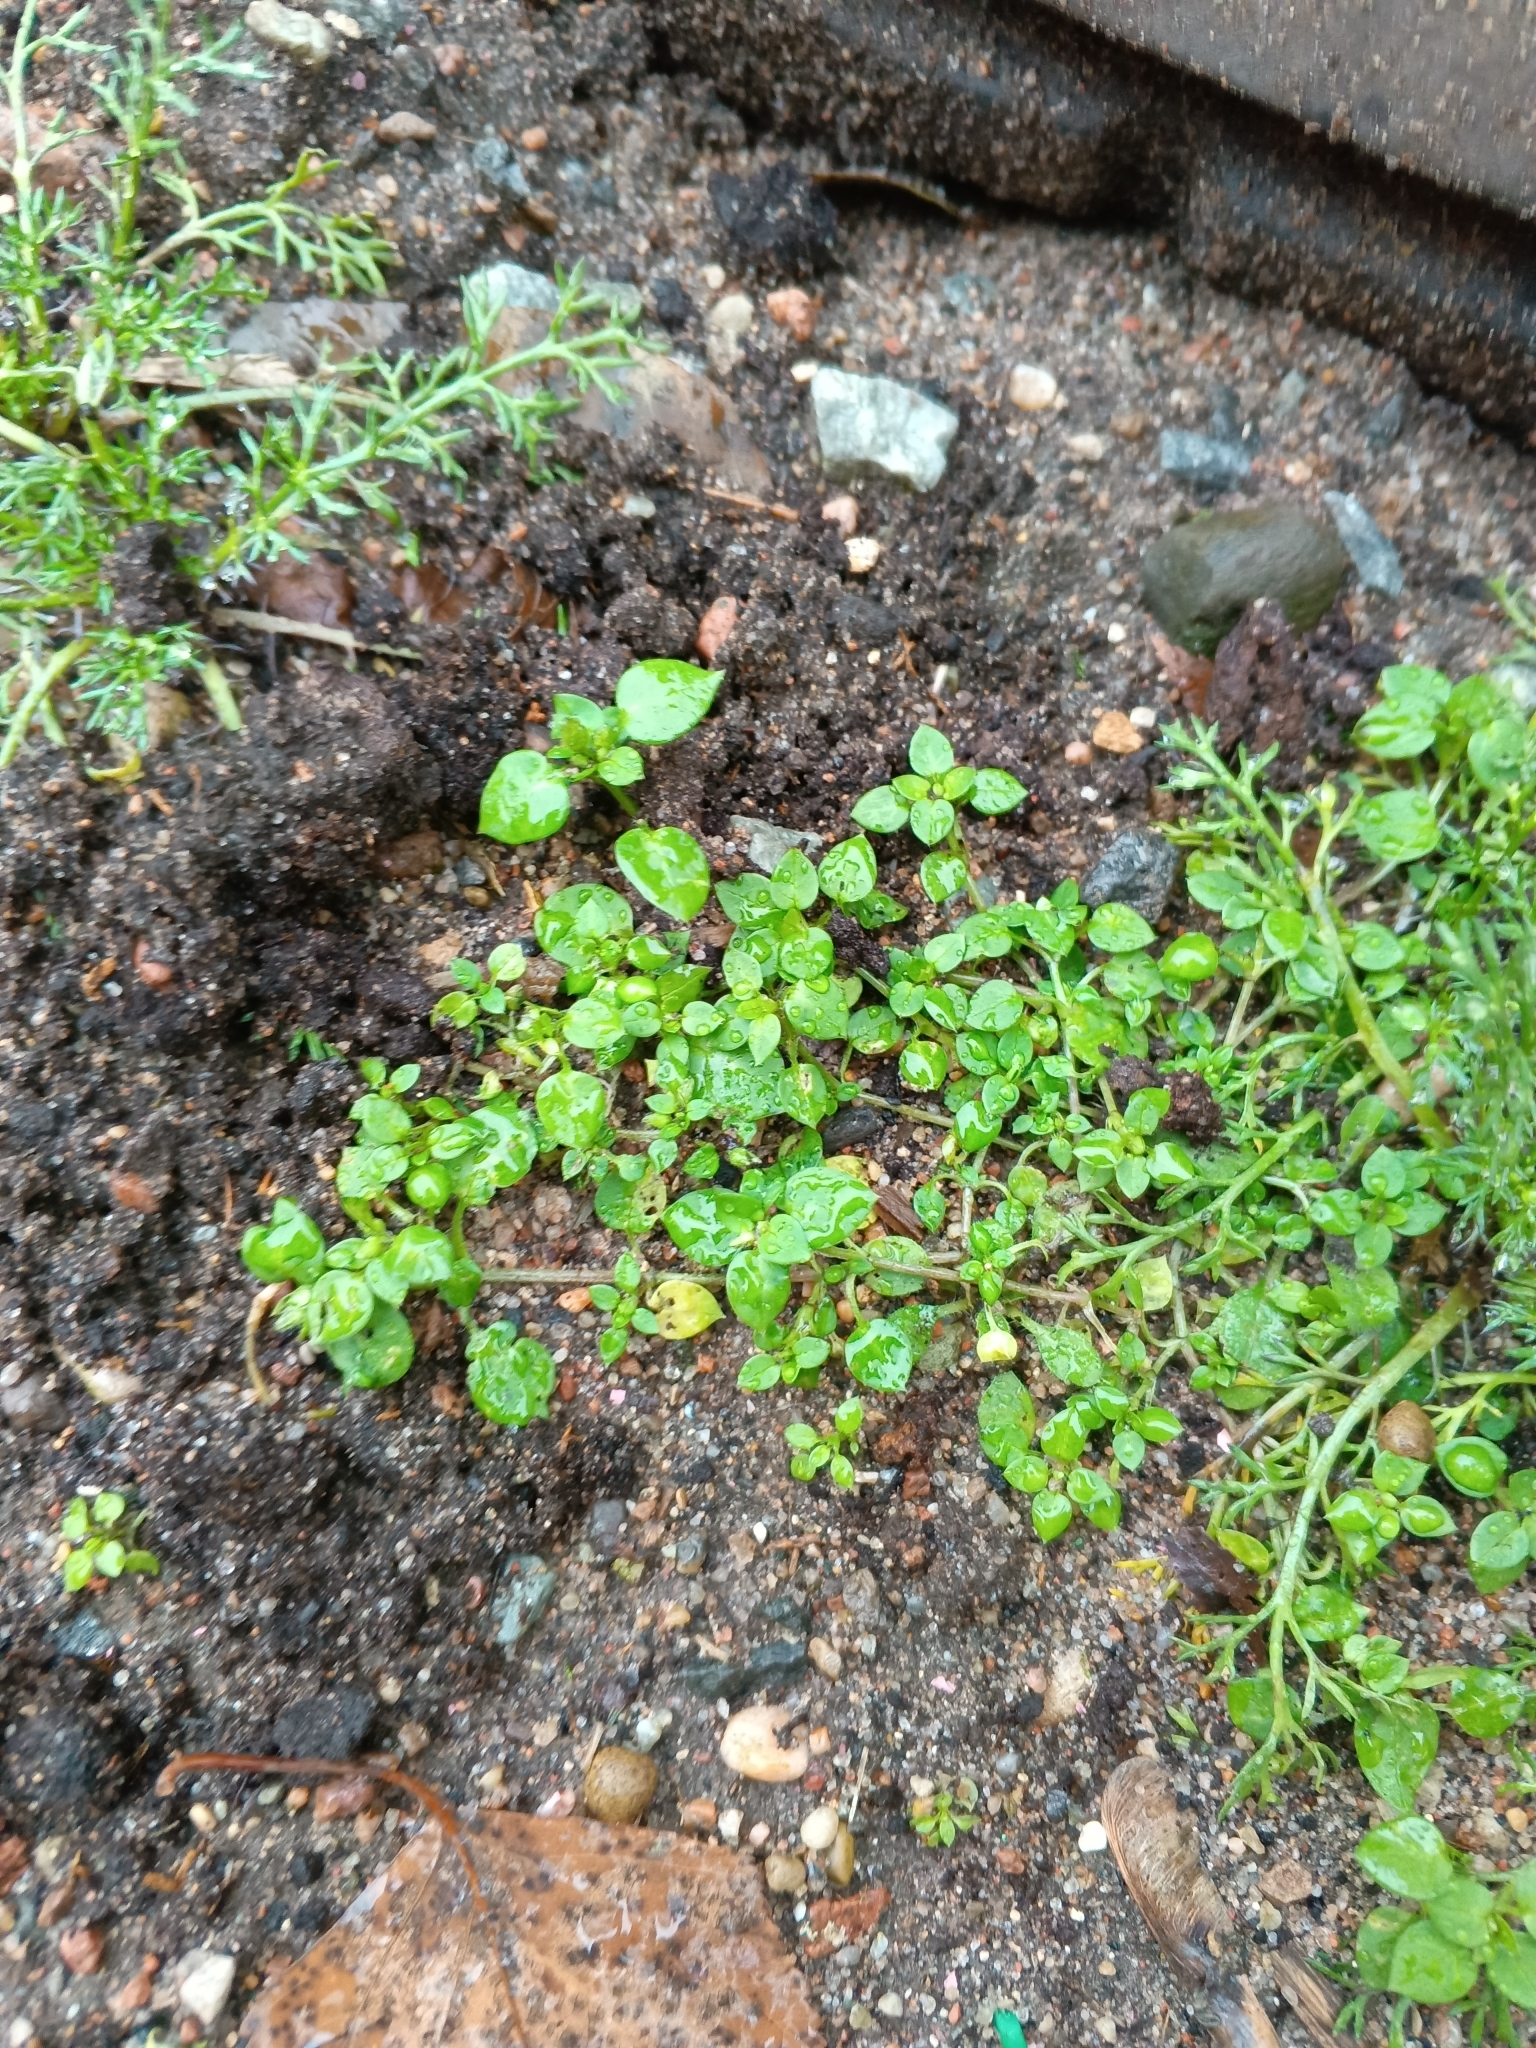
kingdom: Plantae
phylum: Tracheophyta
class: Magnoliopsida
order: Caryophyllales
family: Caryophyllaceae
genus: Stellaria
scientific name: Stellaria media
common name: Common chickweed
